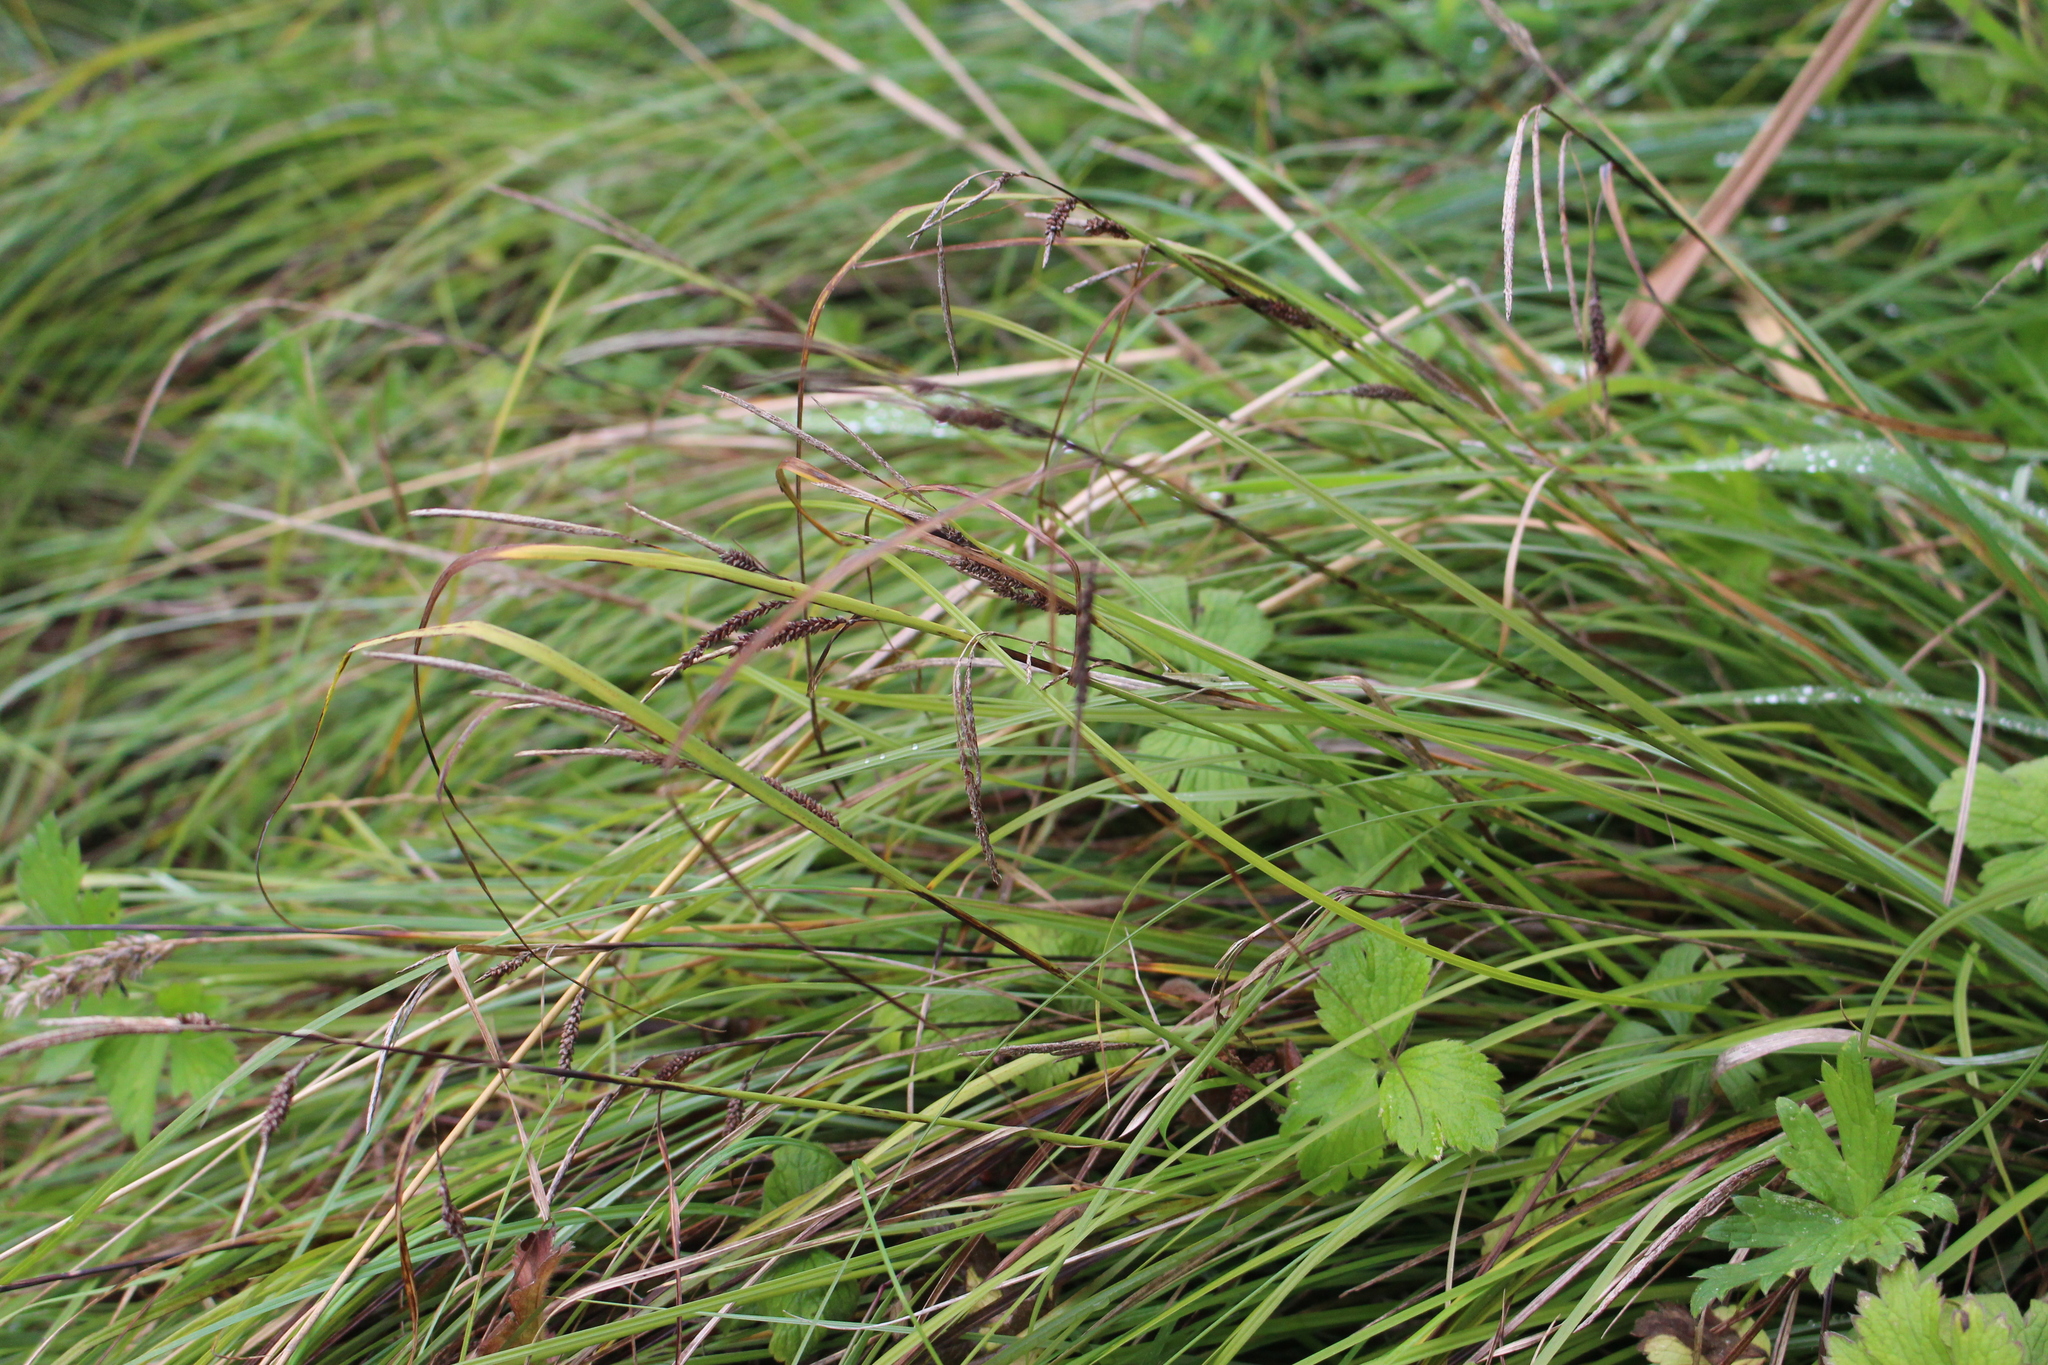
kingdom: Plantae
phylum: Tracheophyta
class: Liliopsida
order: Poales
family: Cyperaceae
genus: Carex
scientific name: Carex dissita
